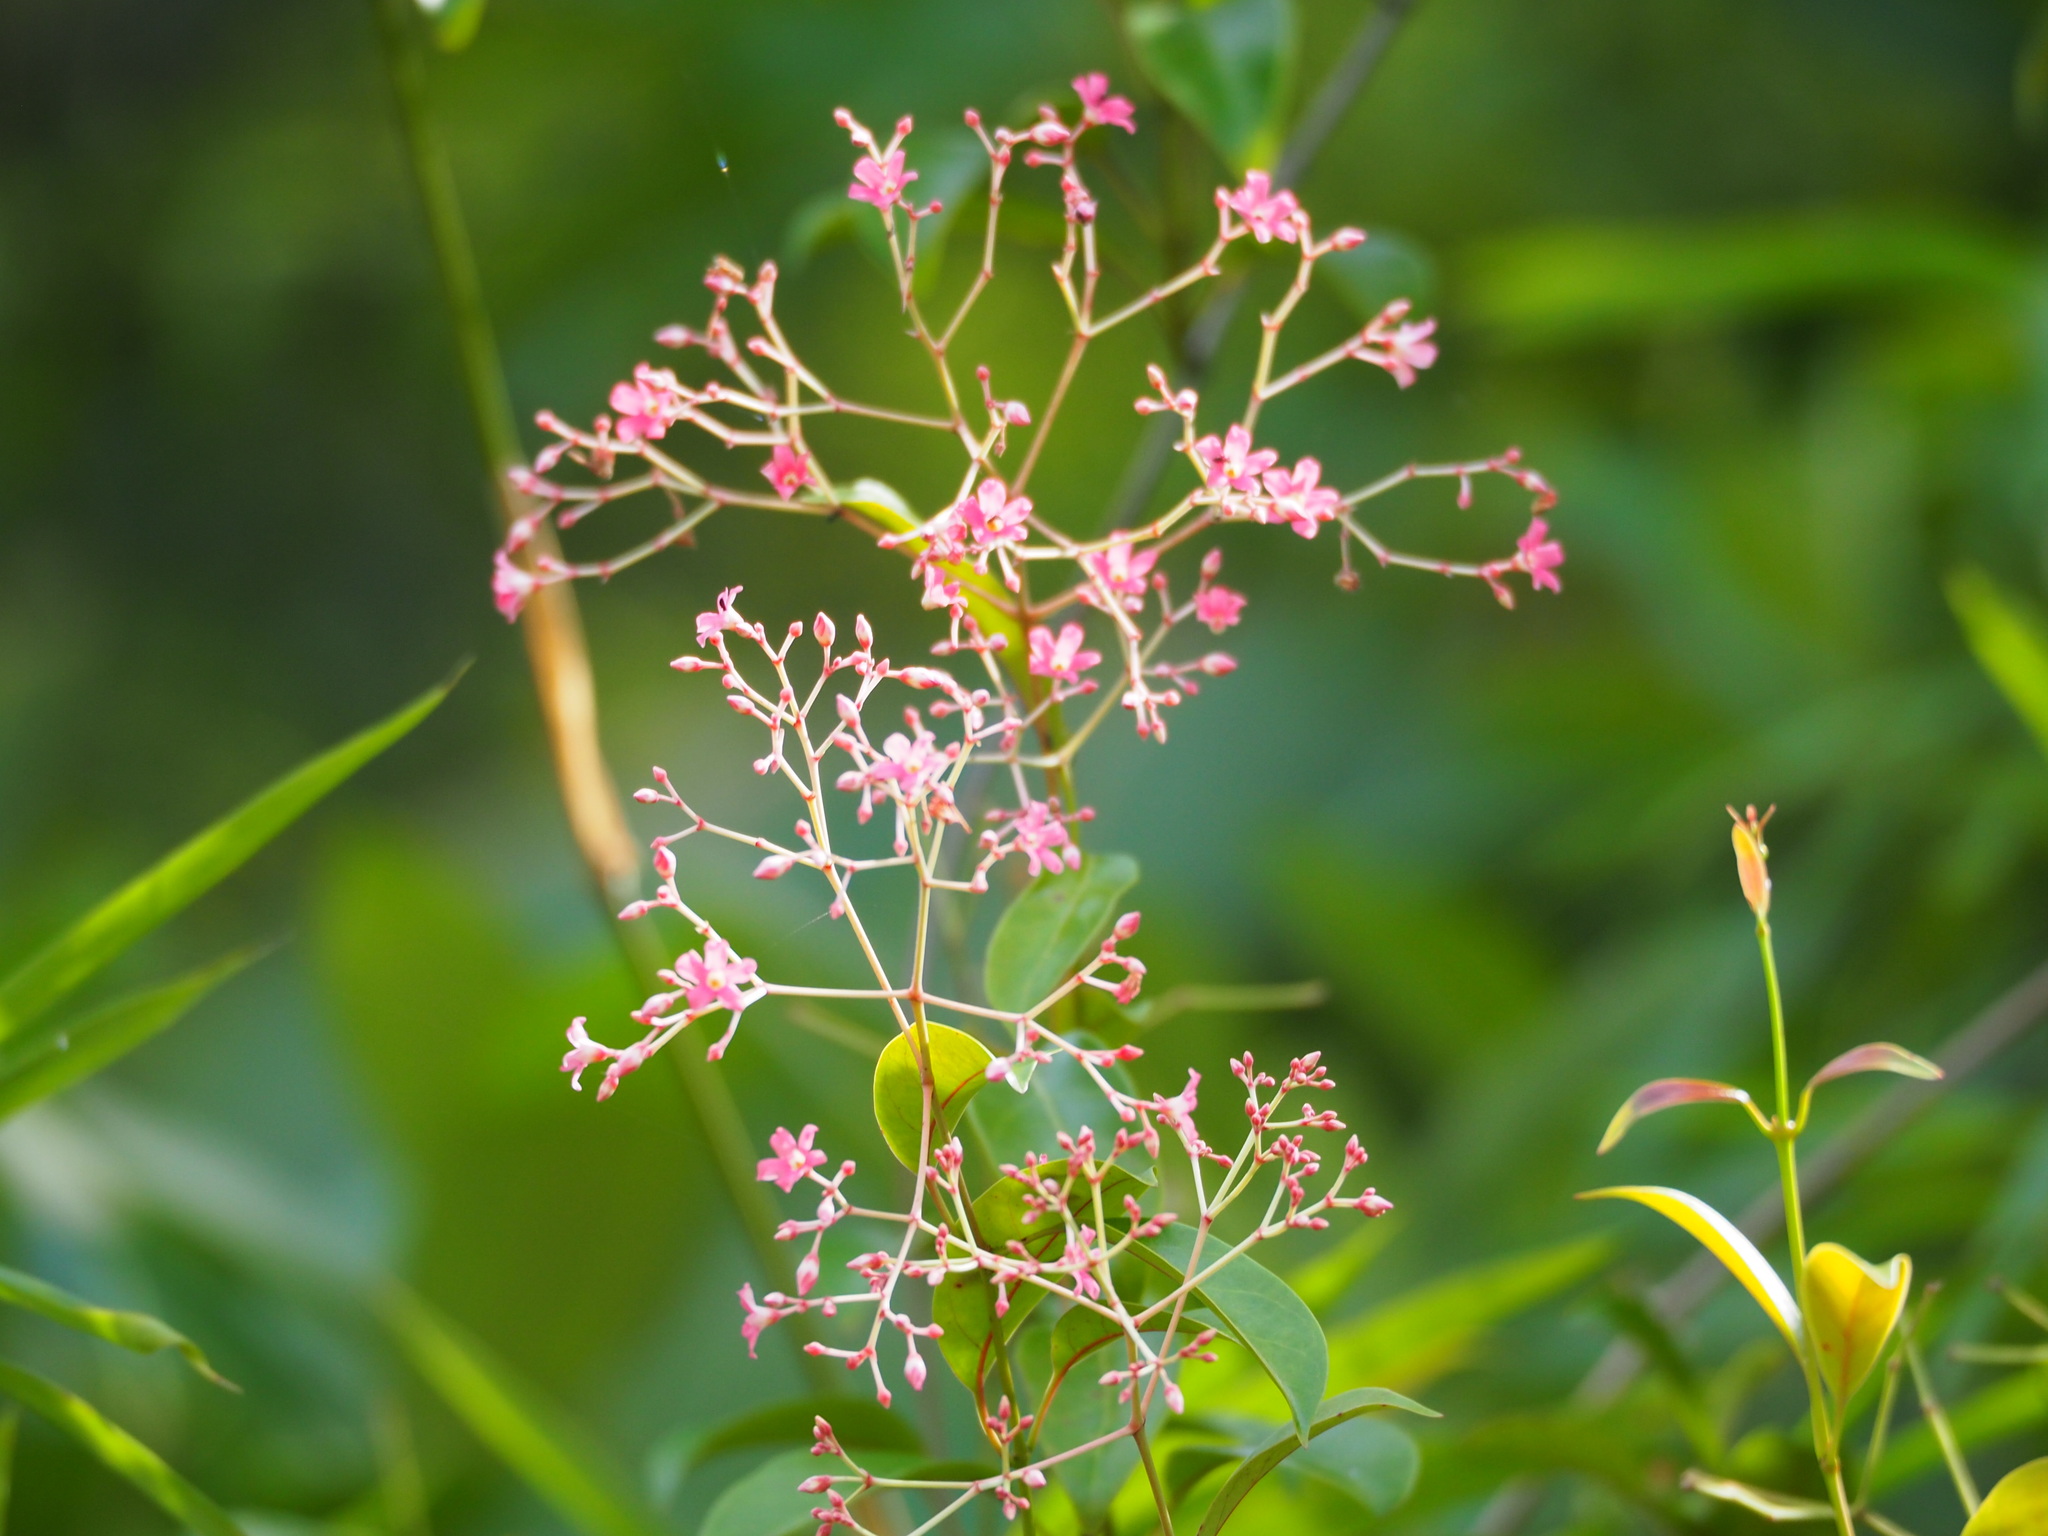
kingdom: Plantae
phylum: Tracheophyta
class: Magnoliopsida
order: Gentianales
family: Apocynaceae
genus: Urceola
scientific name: Urceola rosea
